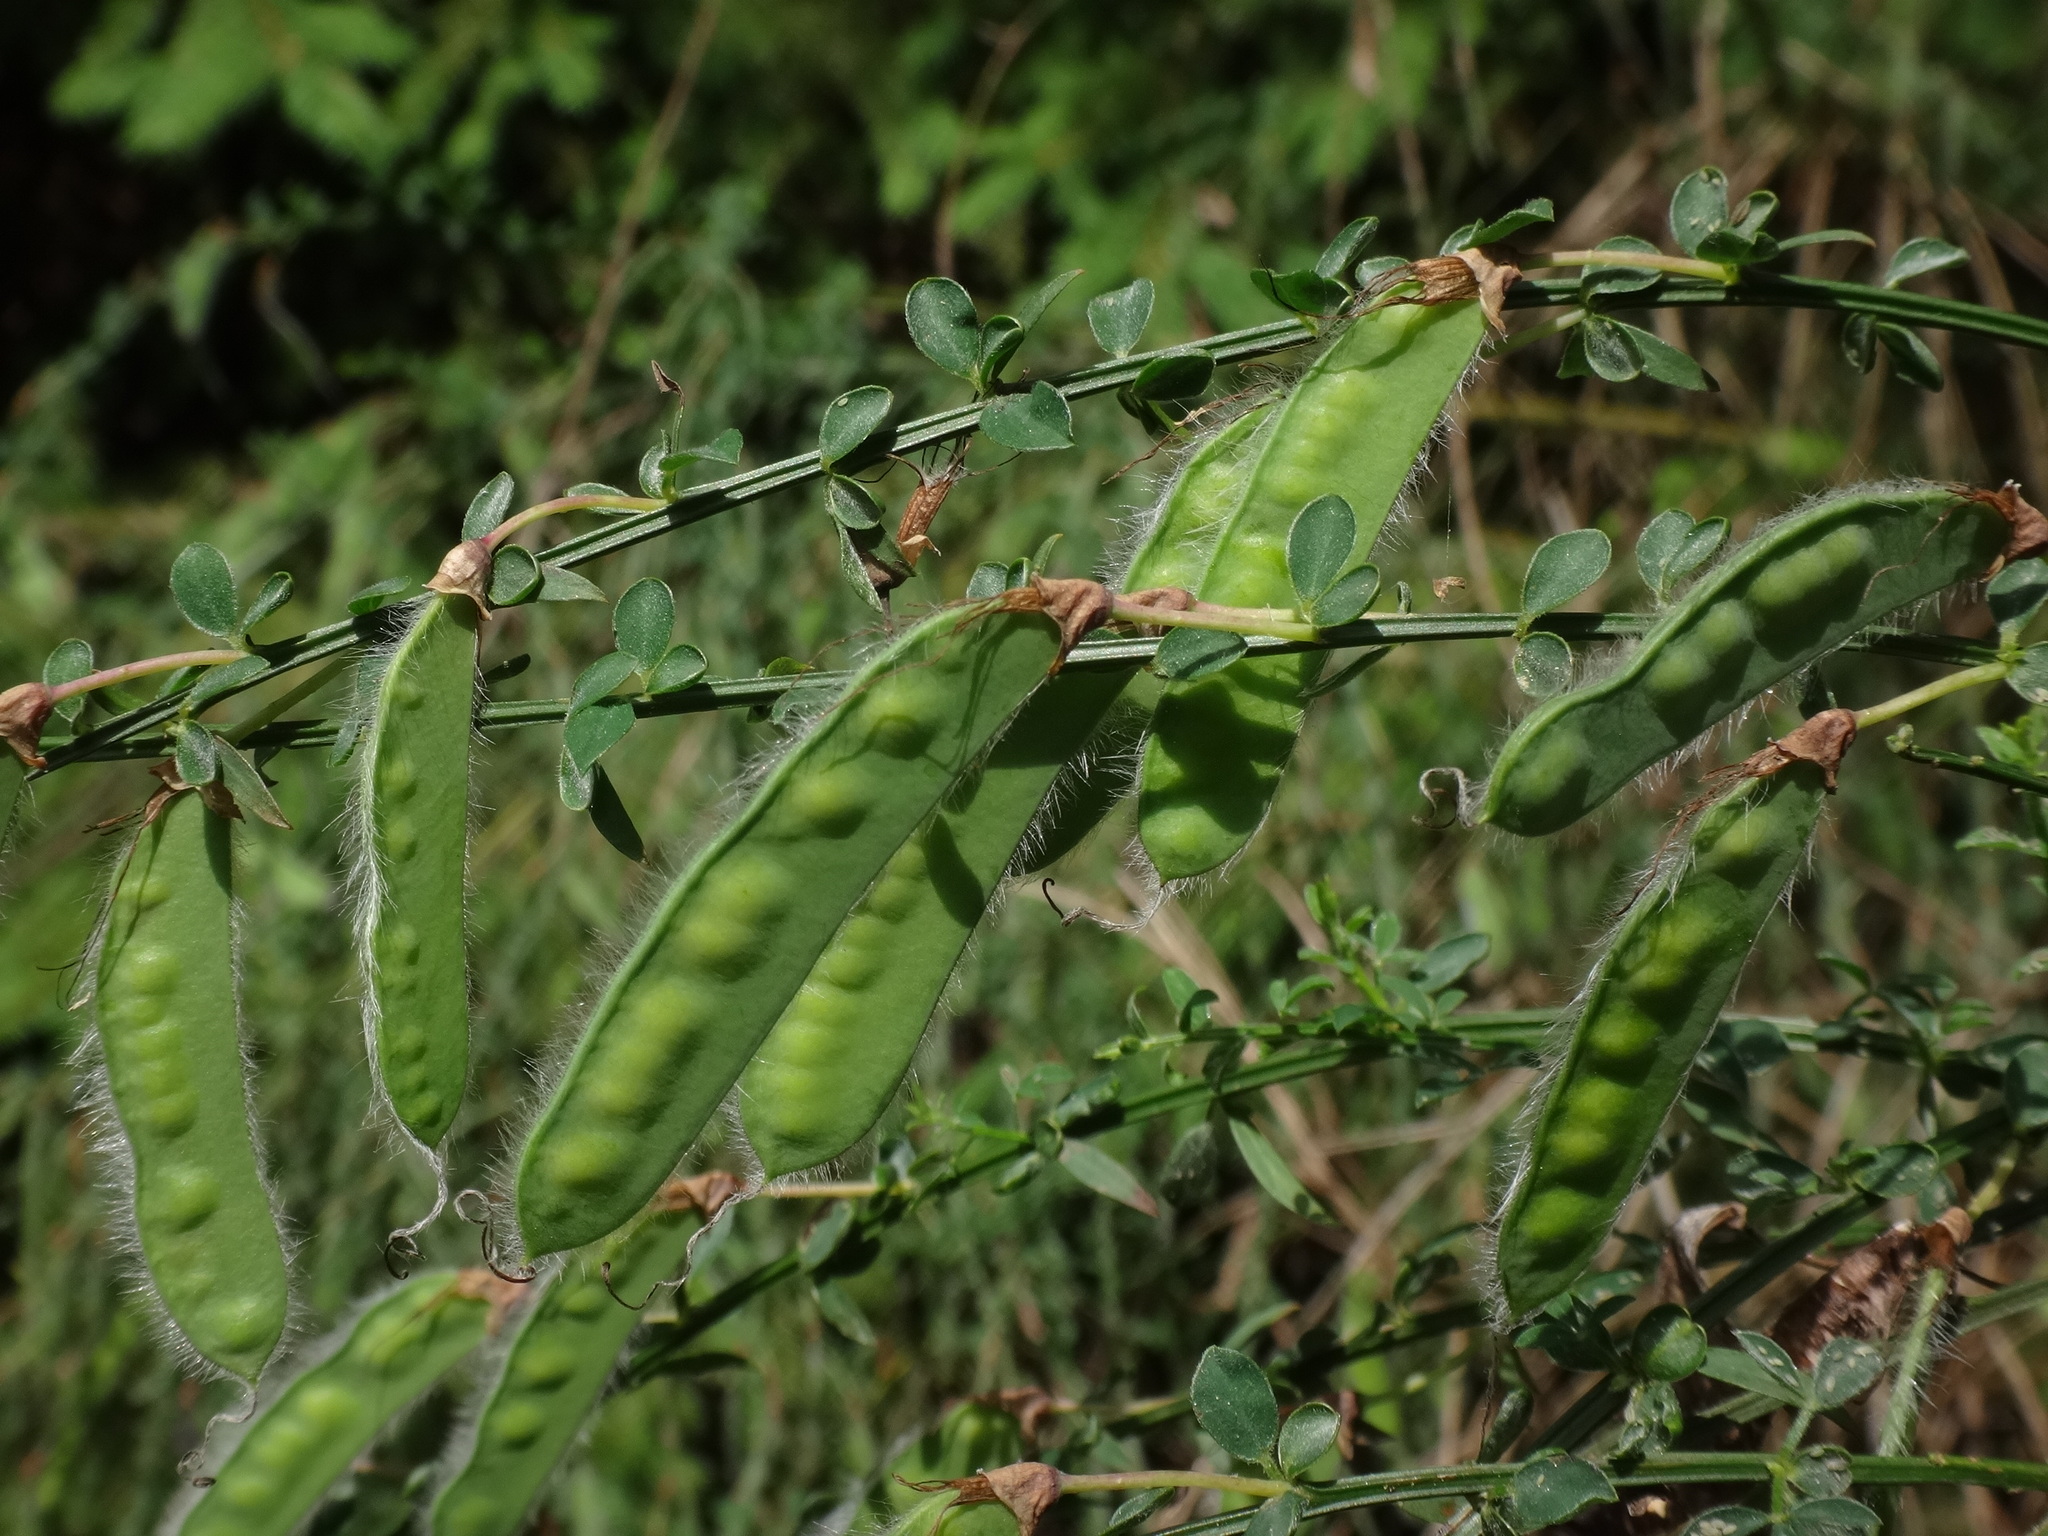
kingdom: Plantae
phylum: Tracheophyta
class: Magnoliopsida
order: Fabales
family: Fabaceae
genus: Cytisus
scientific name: Cytisus scoparius
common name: Scotch broom
